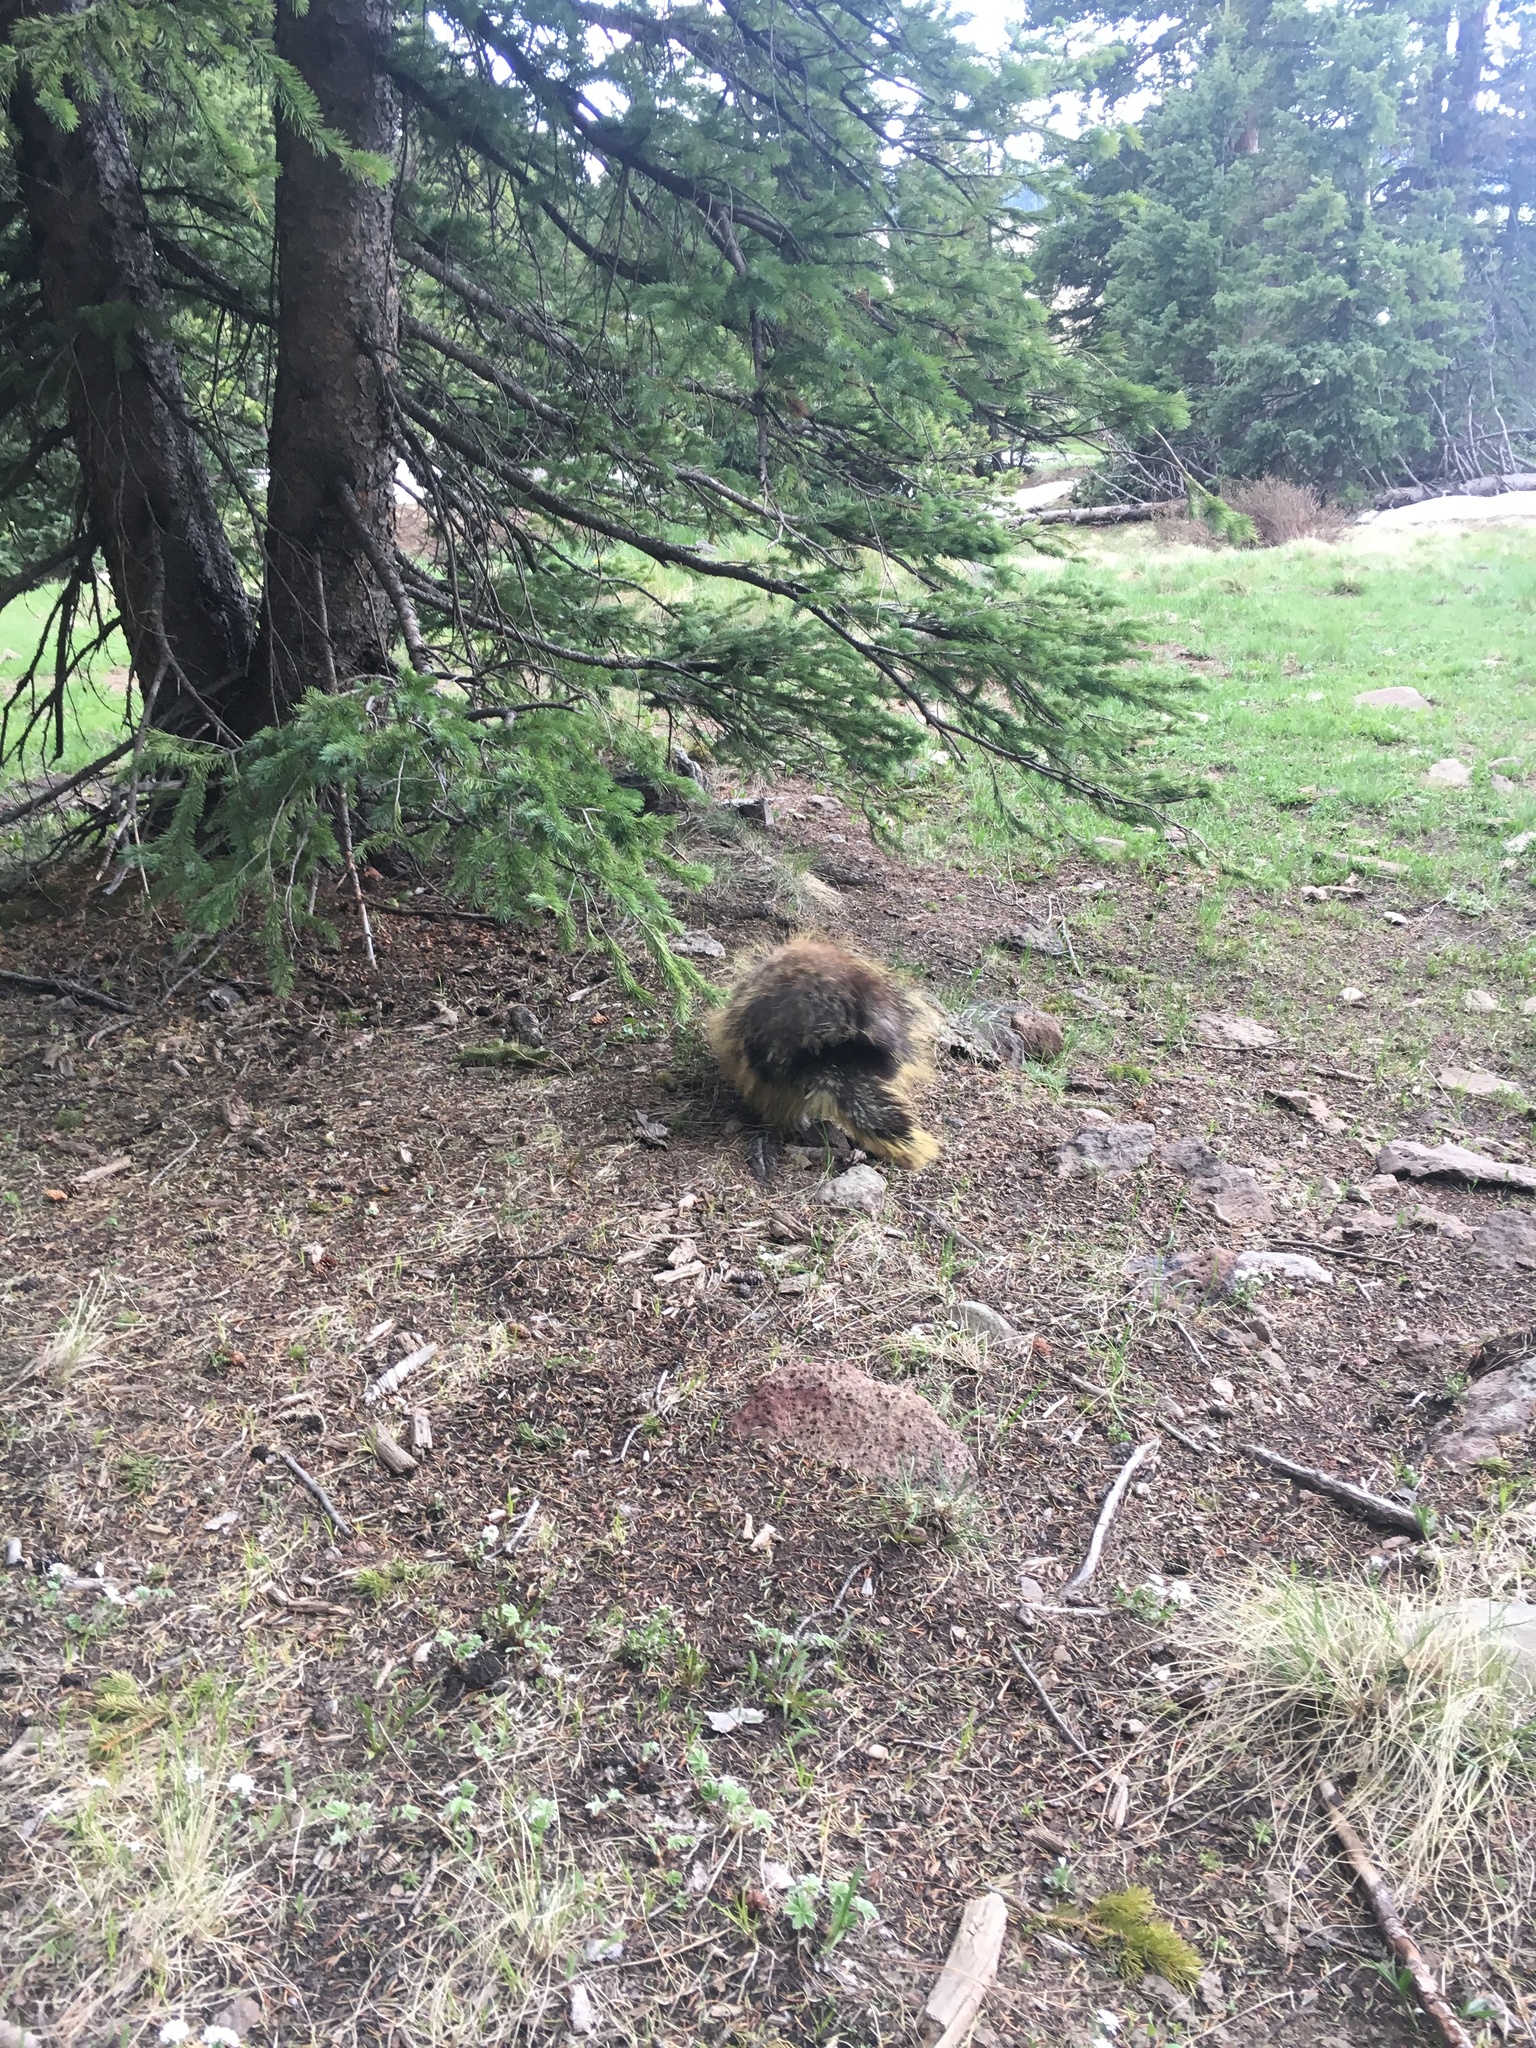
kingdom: Animalia
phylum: Chordata
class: Mammalia
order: Rodentia
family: Erethizontidae
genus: Erethizon
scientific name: Erethizon dorsatus
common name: North american porcupine
